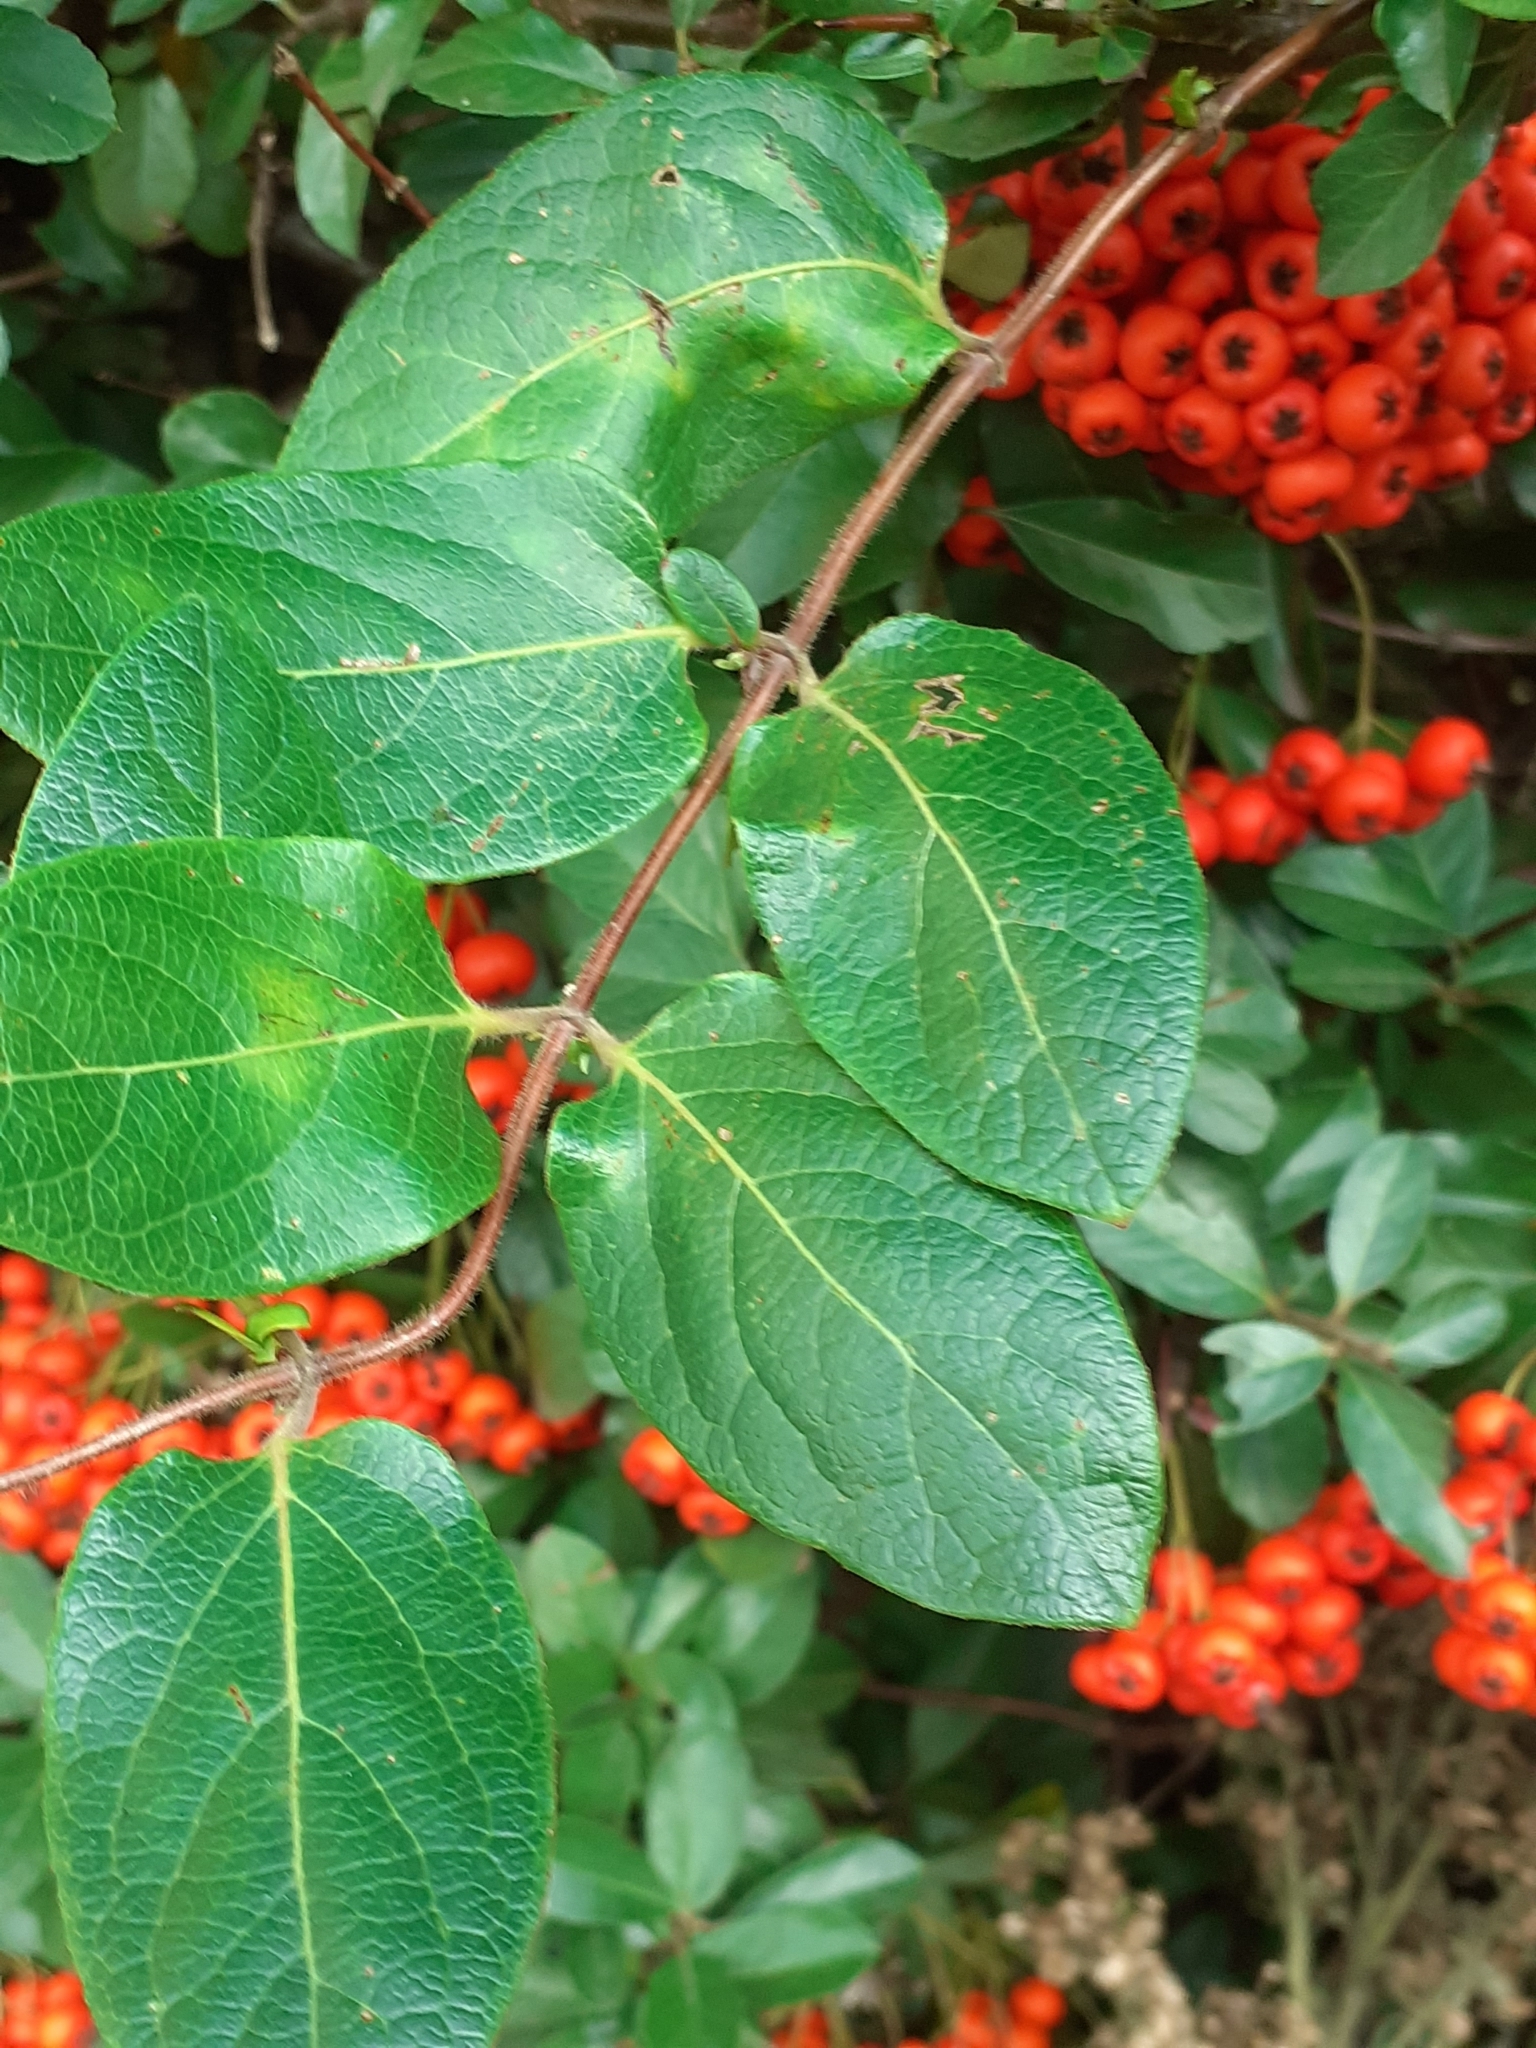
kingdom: Plantae
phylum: Tracheophyta
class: Magnoliopsida
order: Dipsacales
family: Caprifoliaceae
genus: Lonicera
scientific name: Lonicera japonica
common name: Japanese honeysuckle
